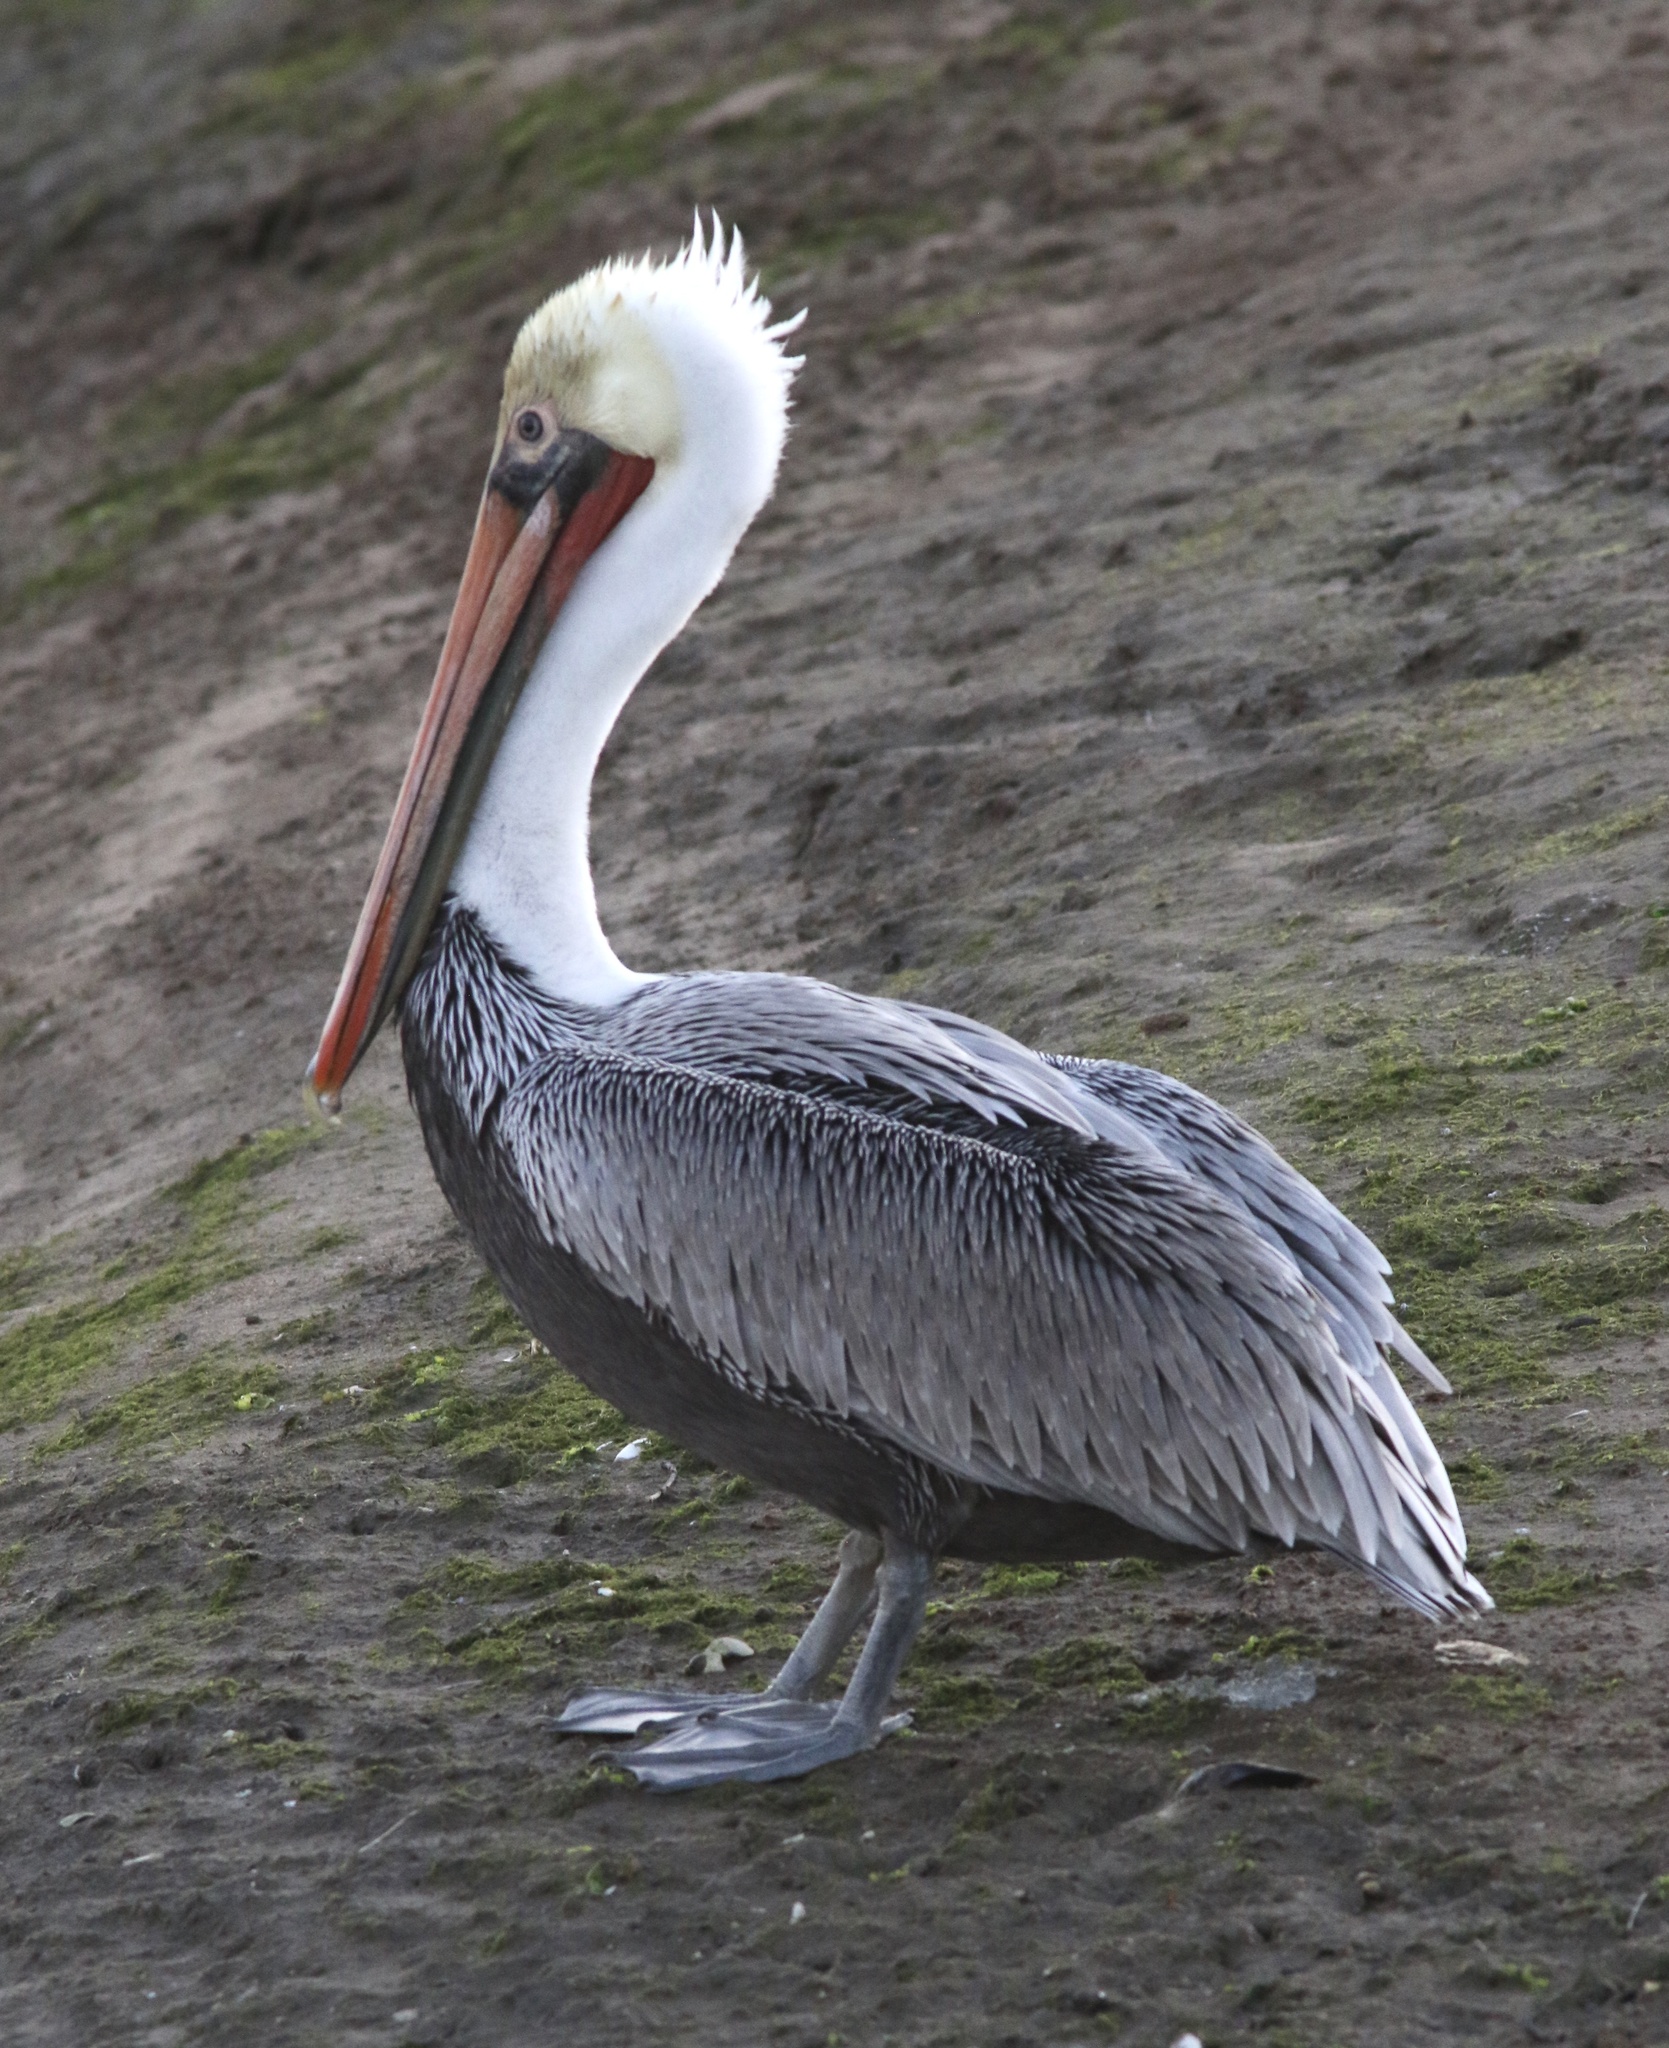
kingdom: Animalia
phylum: Chordata
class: Aves
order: Pelecaniformes
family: Pelecanidae
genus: Pelecanus
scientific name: Pelecanus occidentalis
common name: Brown pelican
